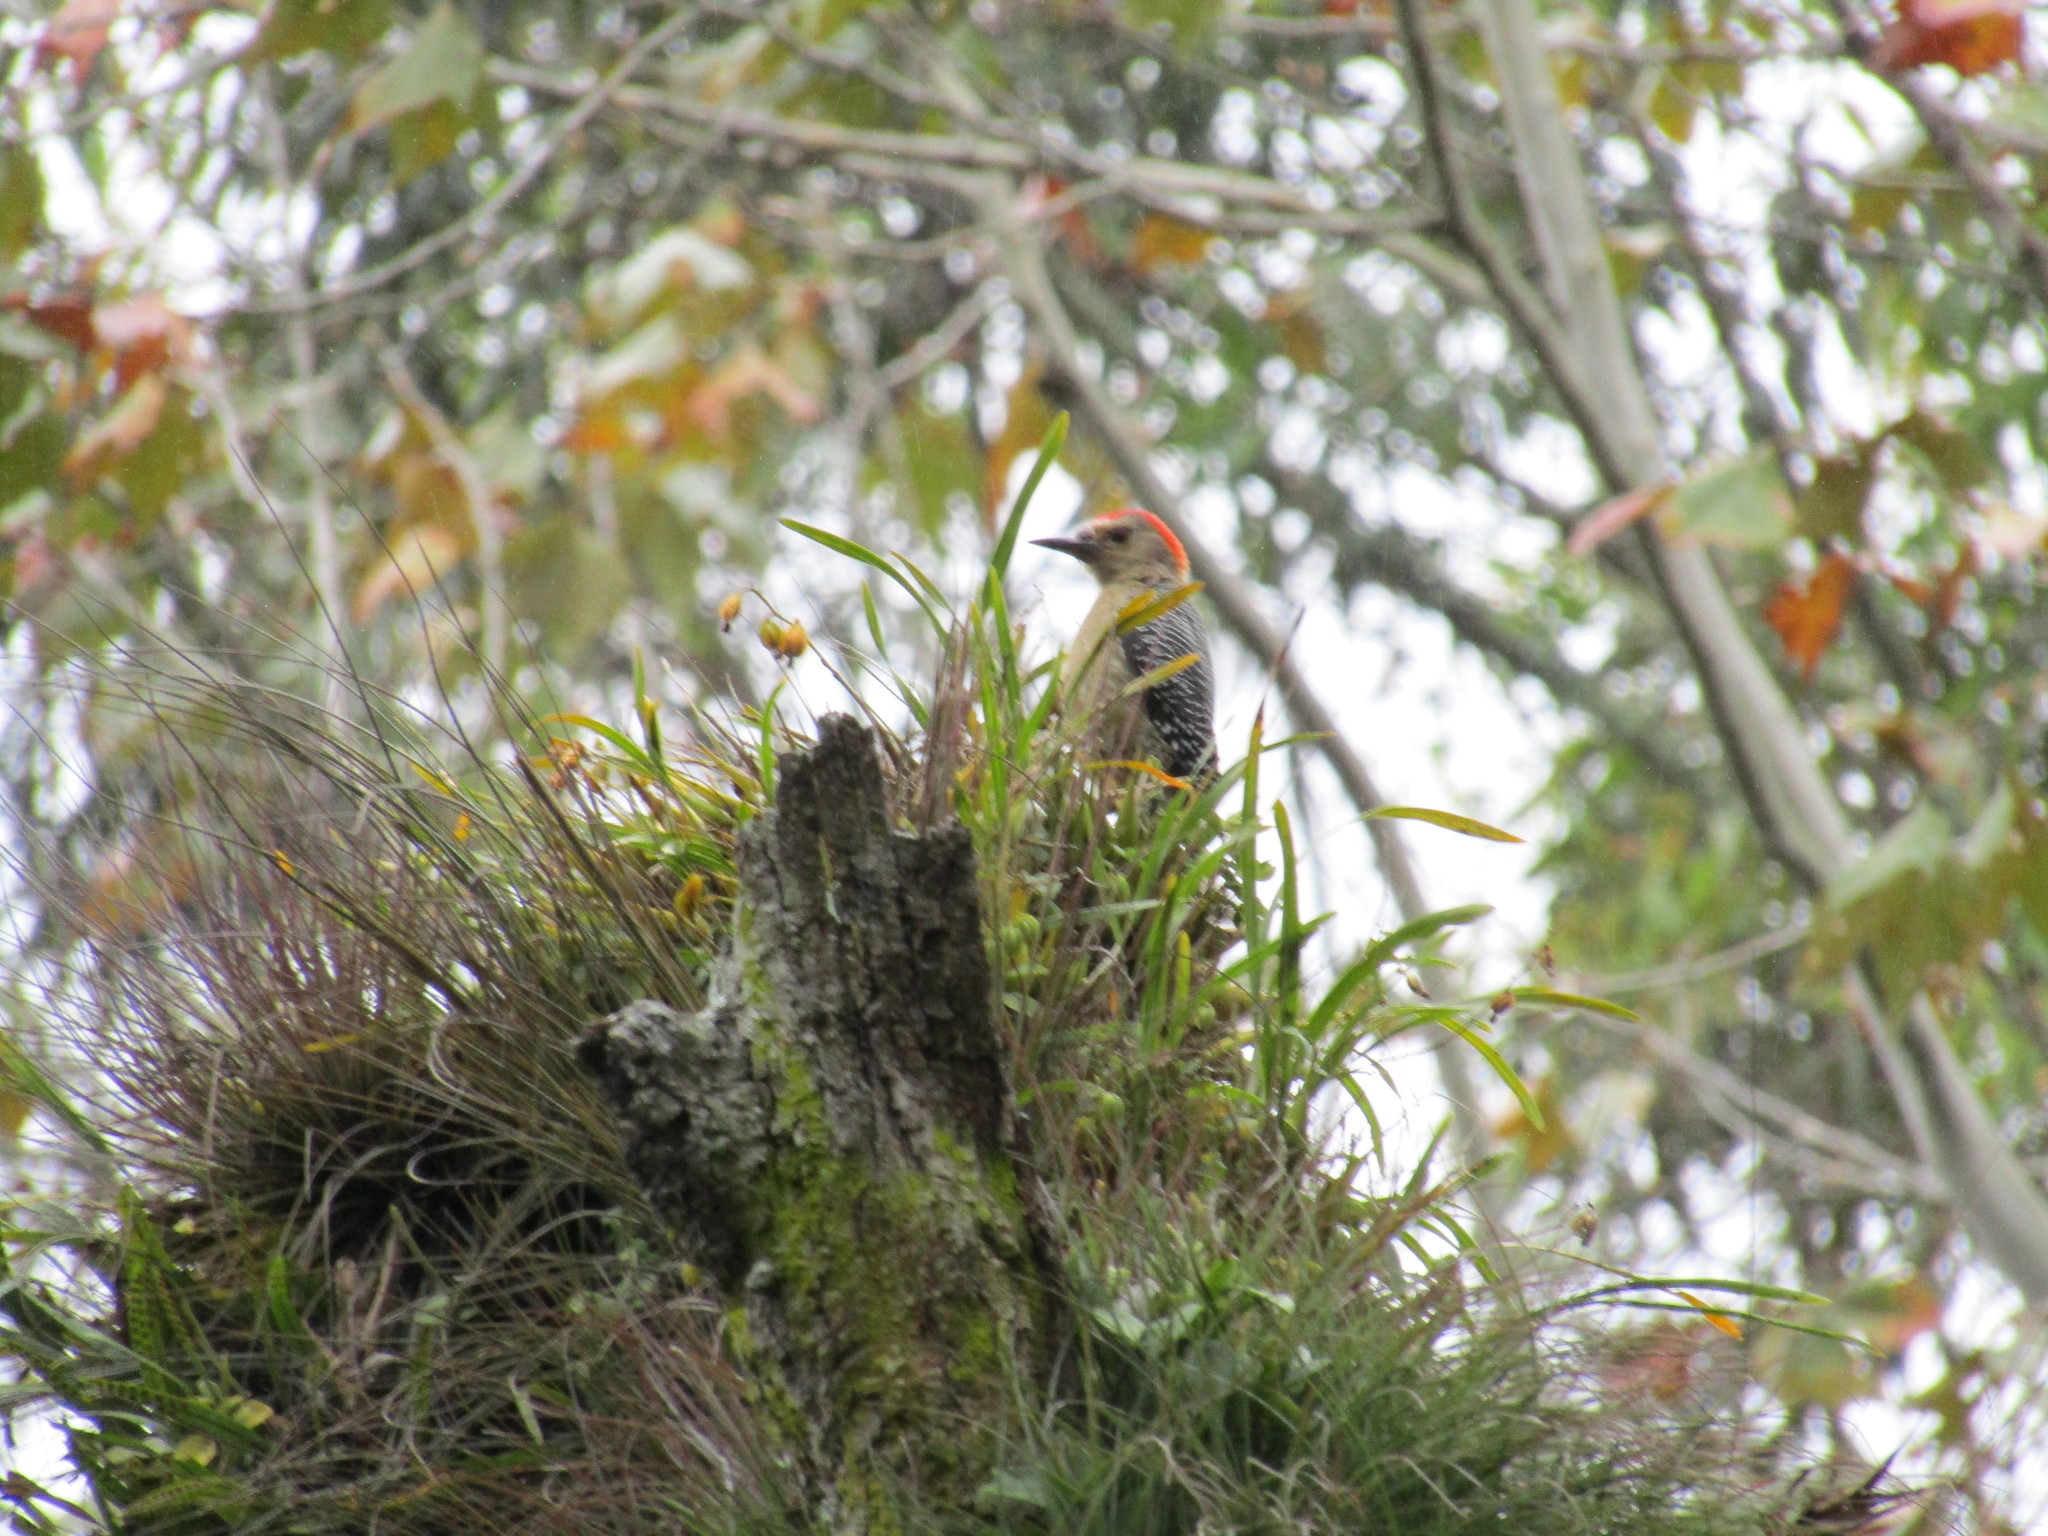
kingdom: Animalia
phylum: Chordata
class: Aves
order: Piciformes
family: Picidae
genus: Melanerpes
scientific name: Melanerpes aurifrons
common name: Golden-fronted woodpecker
